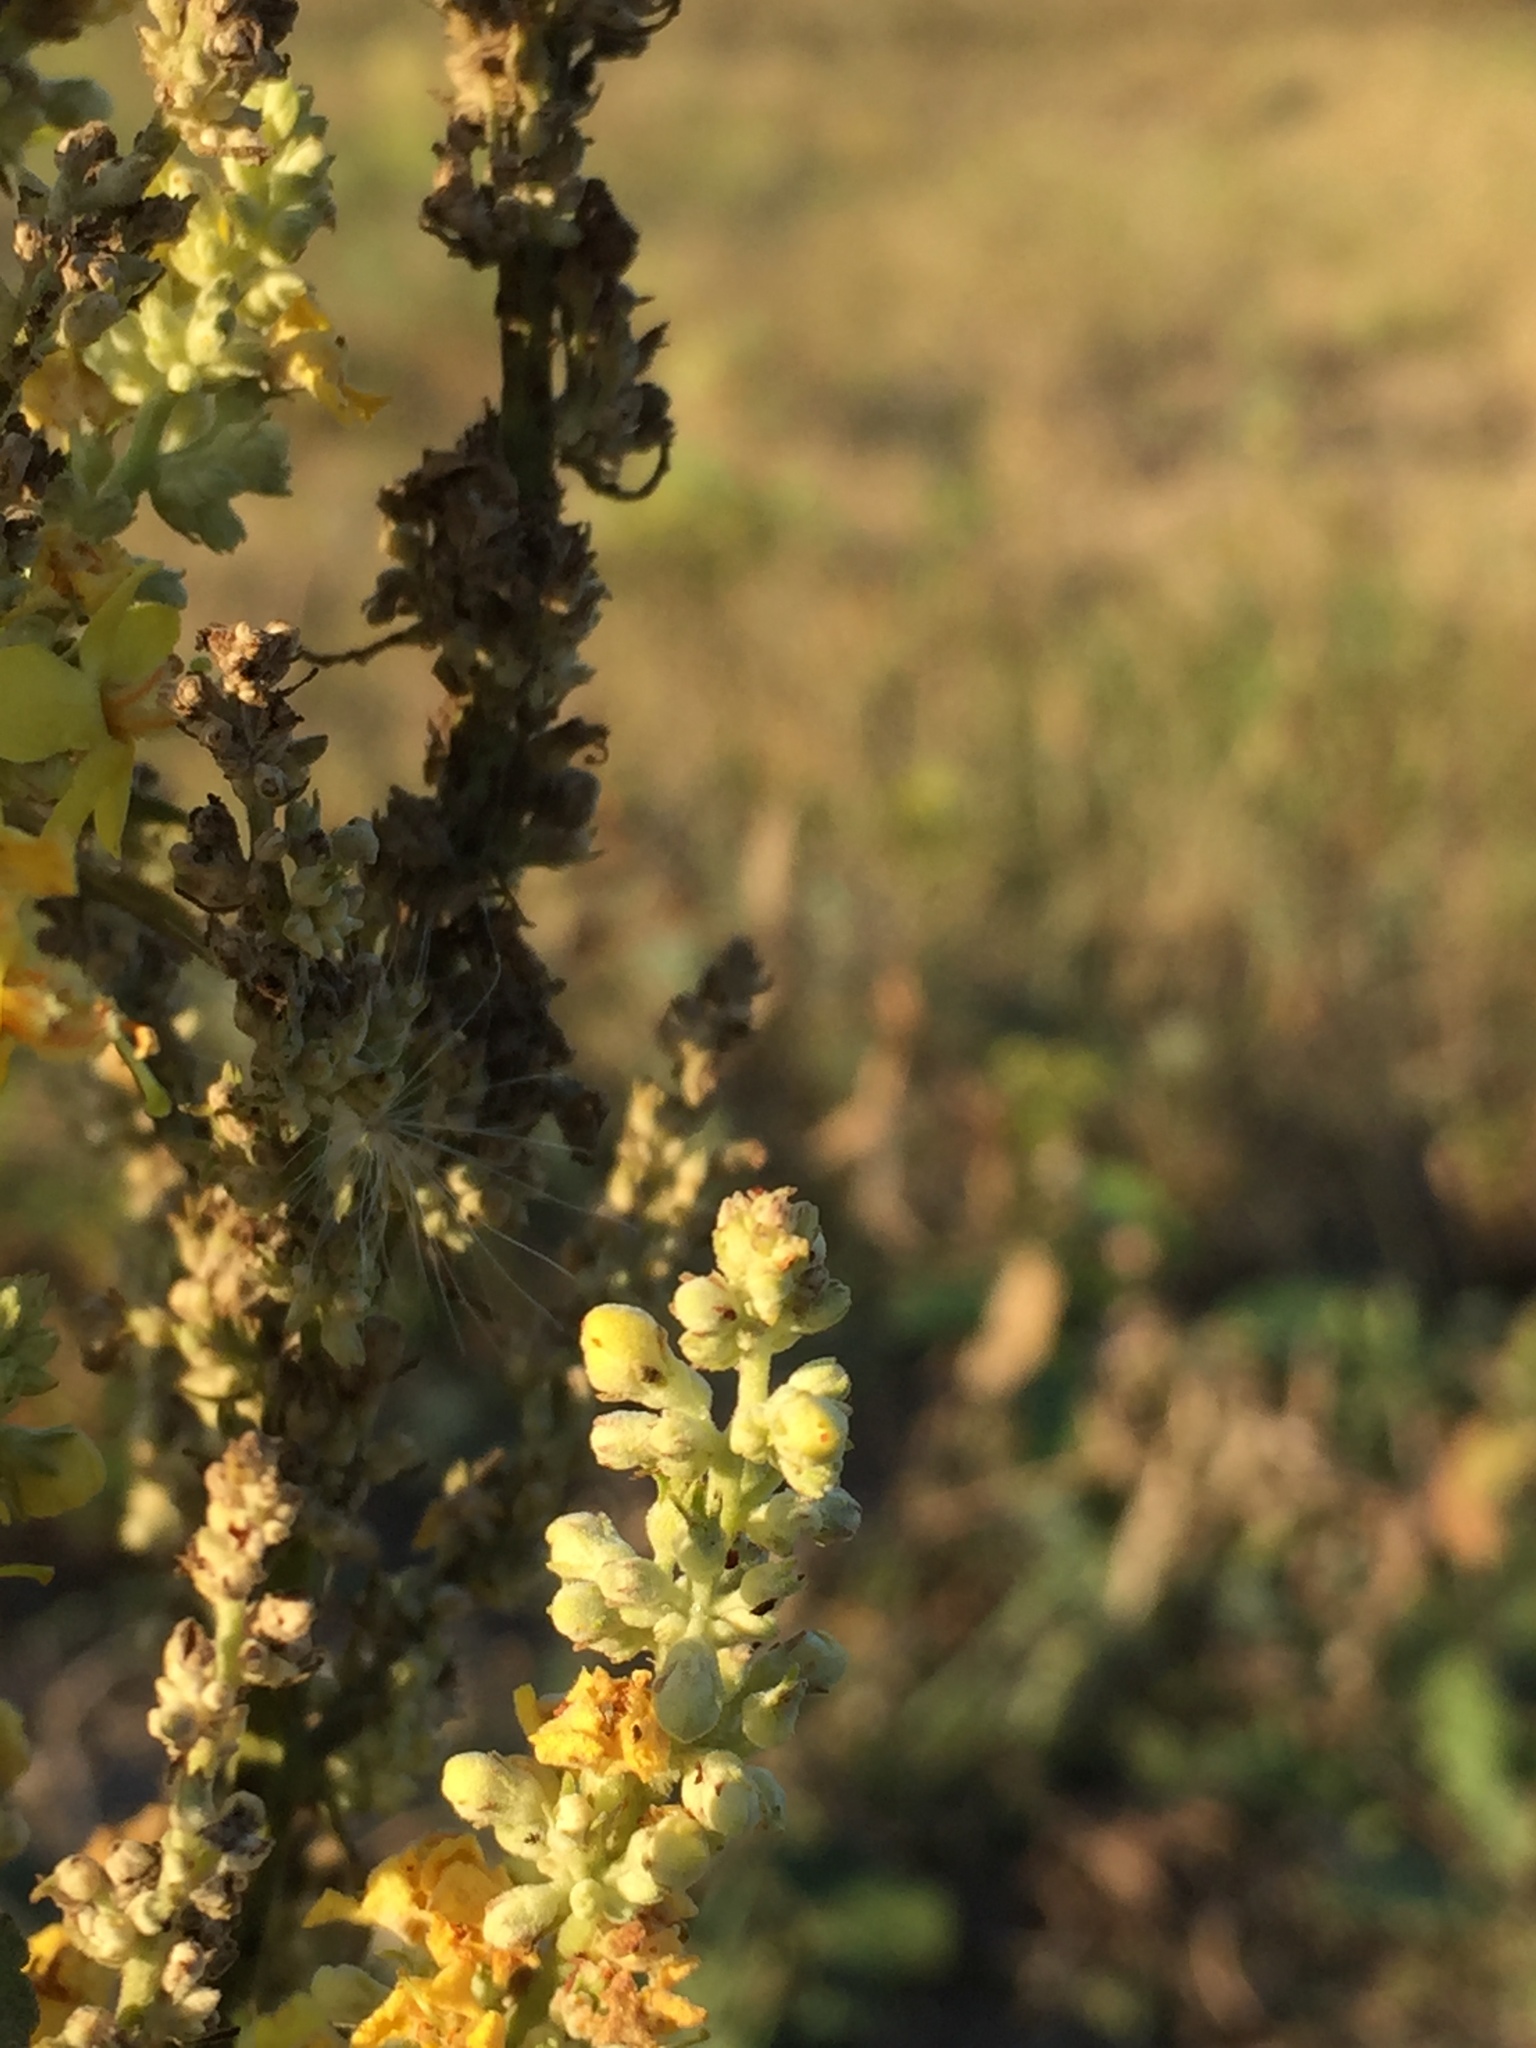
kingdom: Plantae
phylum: Tracheophyta
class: Magnoliopsida
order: Lamiales
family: Scrophulariaceae
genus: Verbascum
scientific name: Verbascum lychnitis
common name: White mullein
